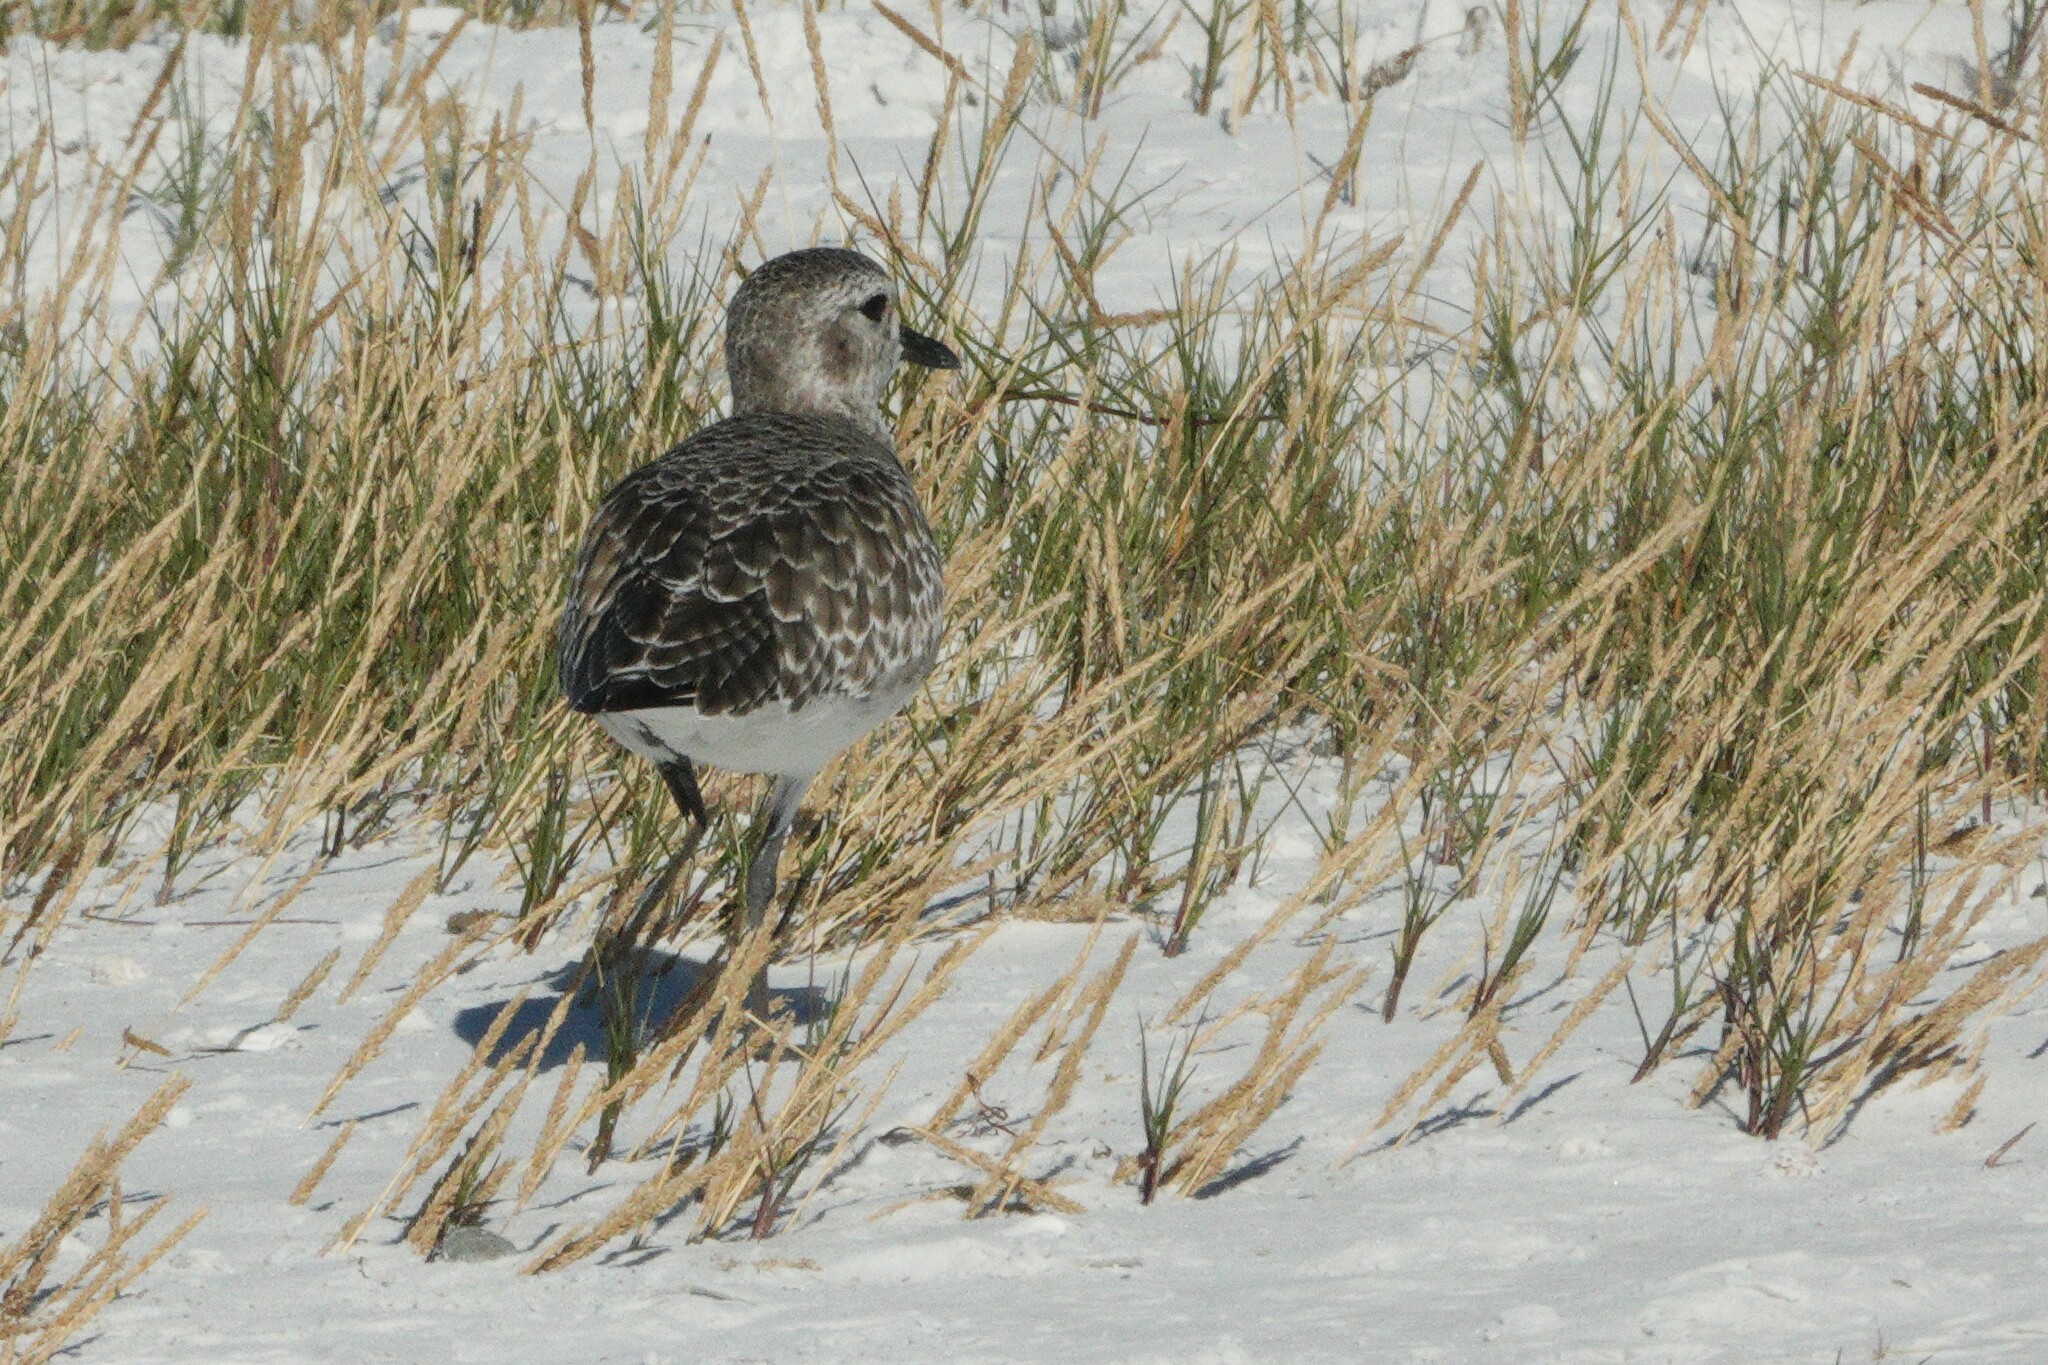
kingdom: Animalia
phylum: Chordata
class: Aves
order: Charadriiformes
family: Charadriidae
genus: Pluvialis
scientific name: Pluvialis squatarola
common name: Grey plover
